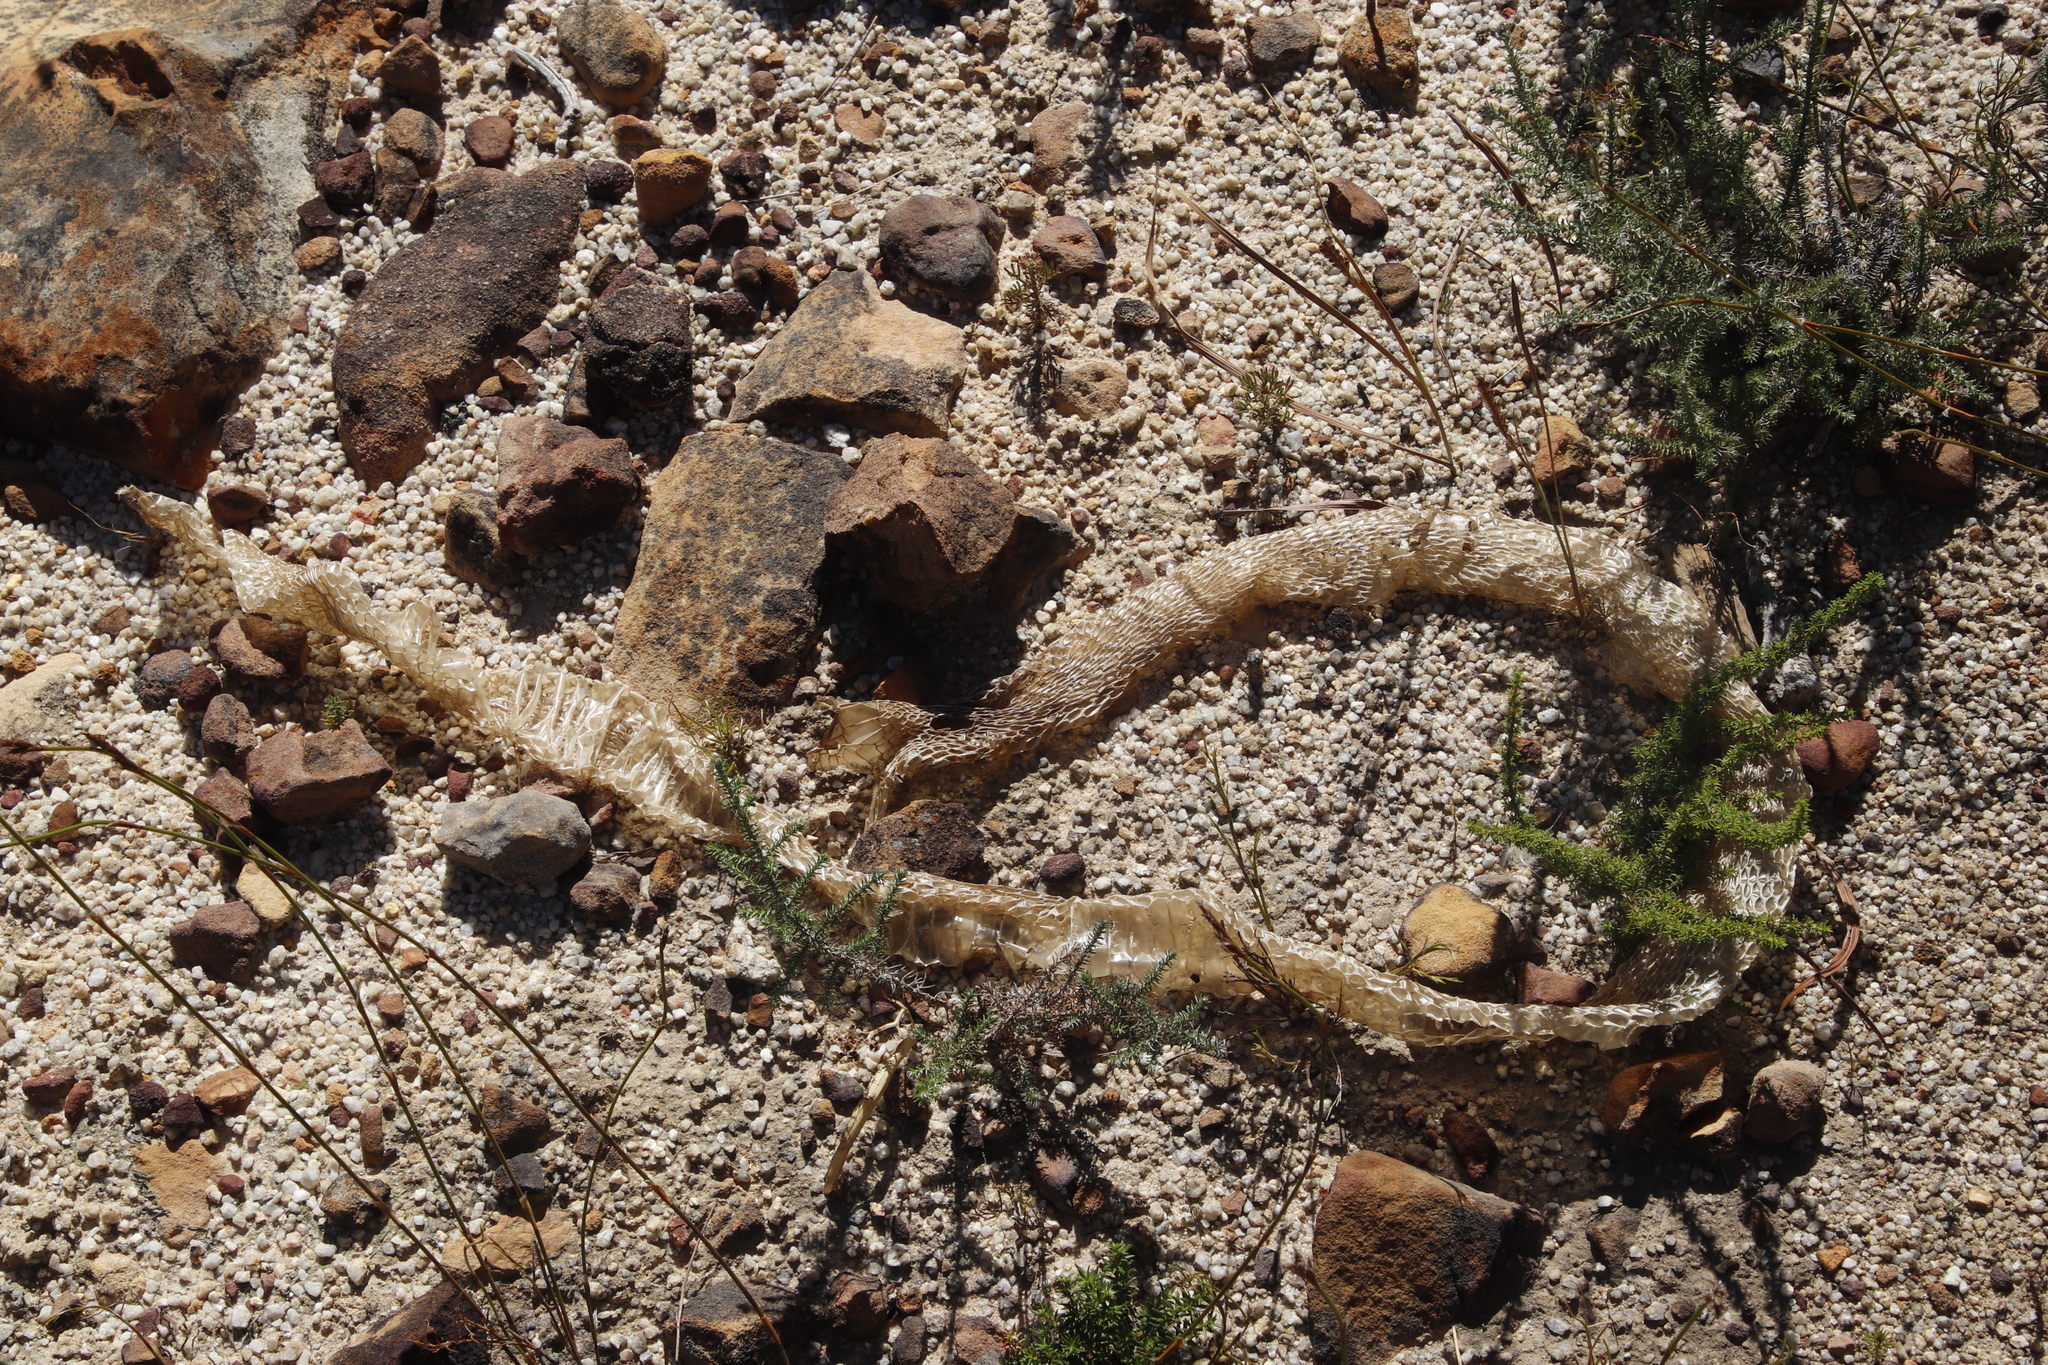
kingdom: Animalia
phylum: Chordata
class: Squamata
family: Elapidae
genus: Naja
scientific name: Naja nivea
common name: Cape cobra
